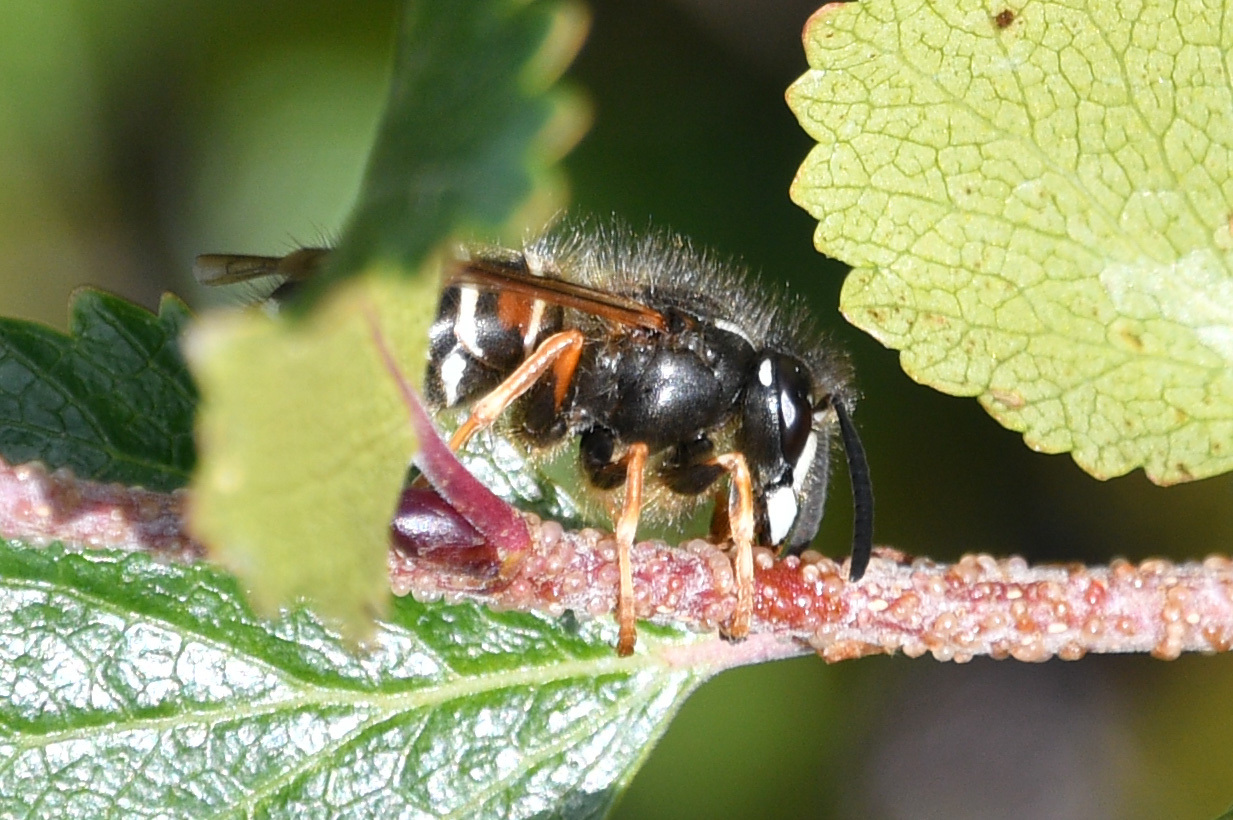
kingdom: Animalia
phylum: Arthropoda
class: Insecta
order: Hymenoptera
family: Vespidae
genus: Dolichovespula
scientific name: Dolichovespula norwegica
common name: Norwegian wasp
